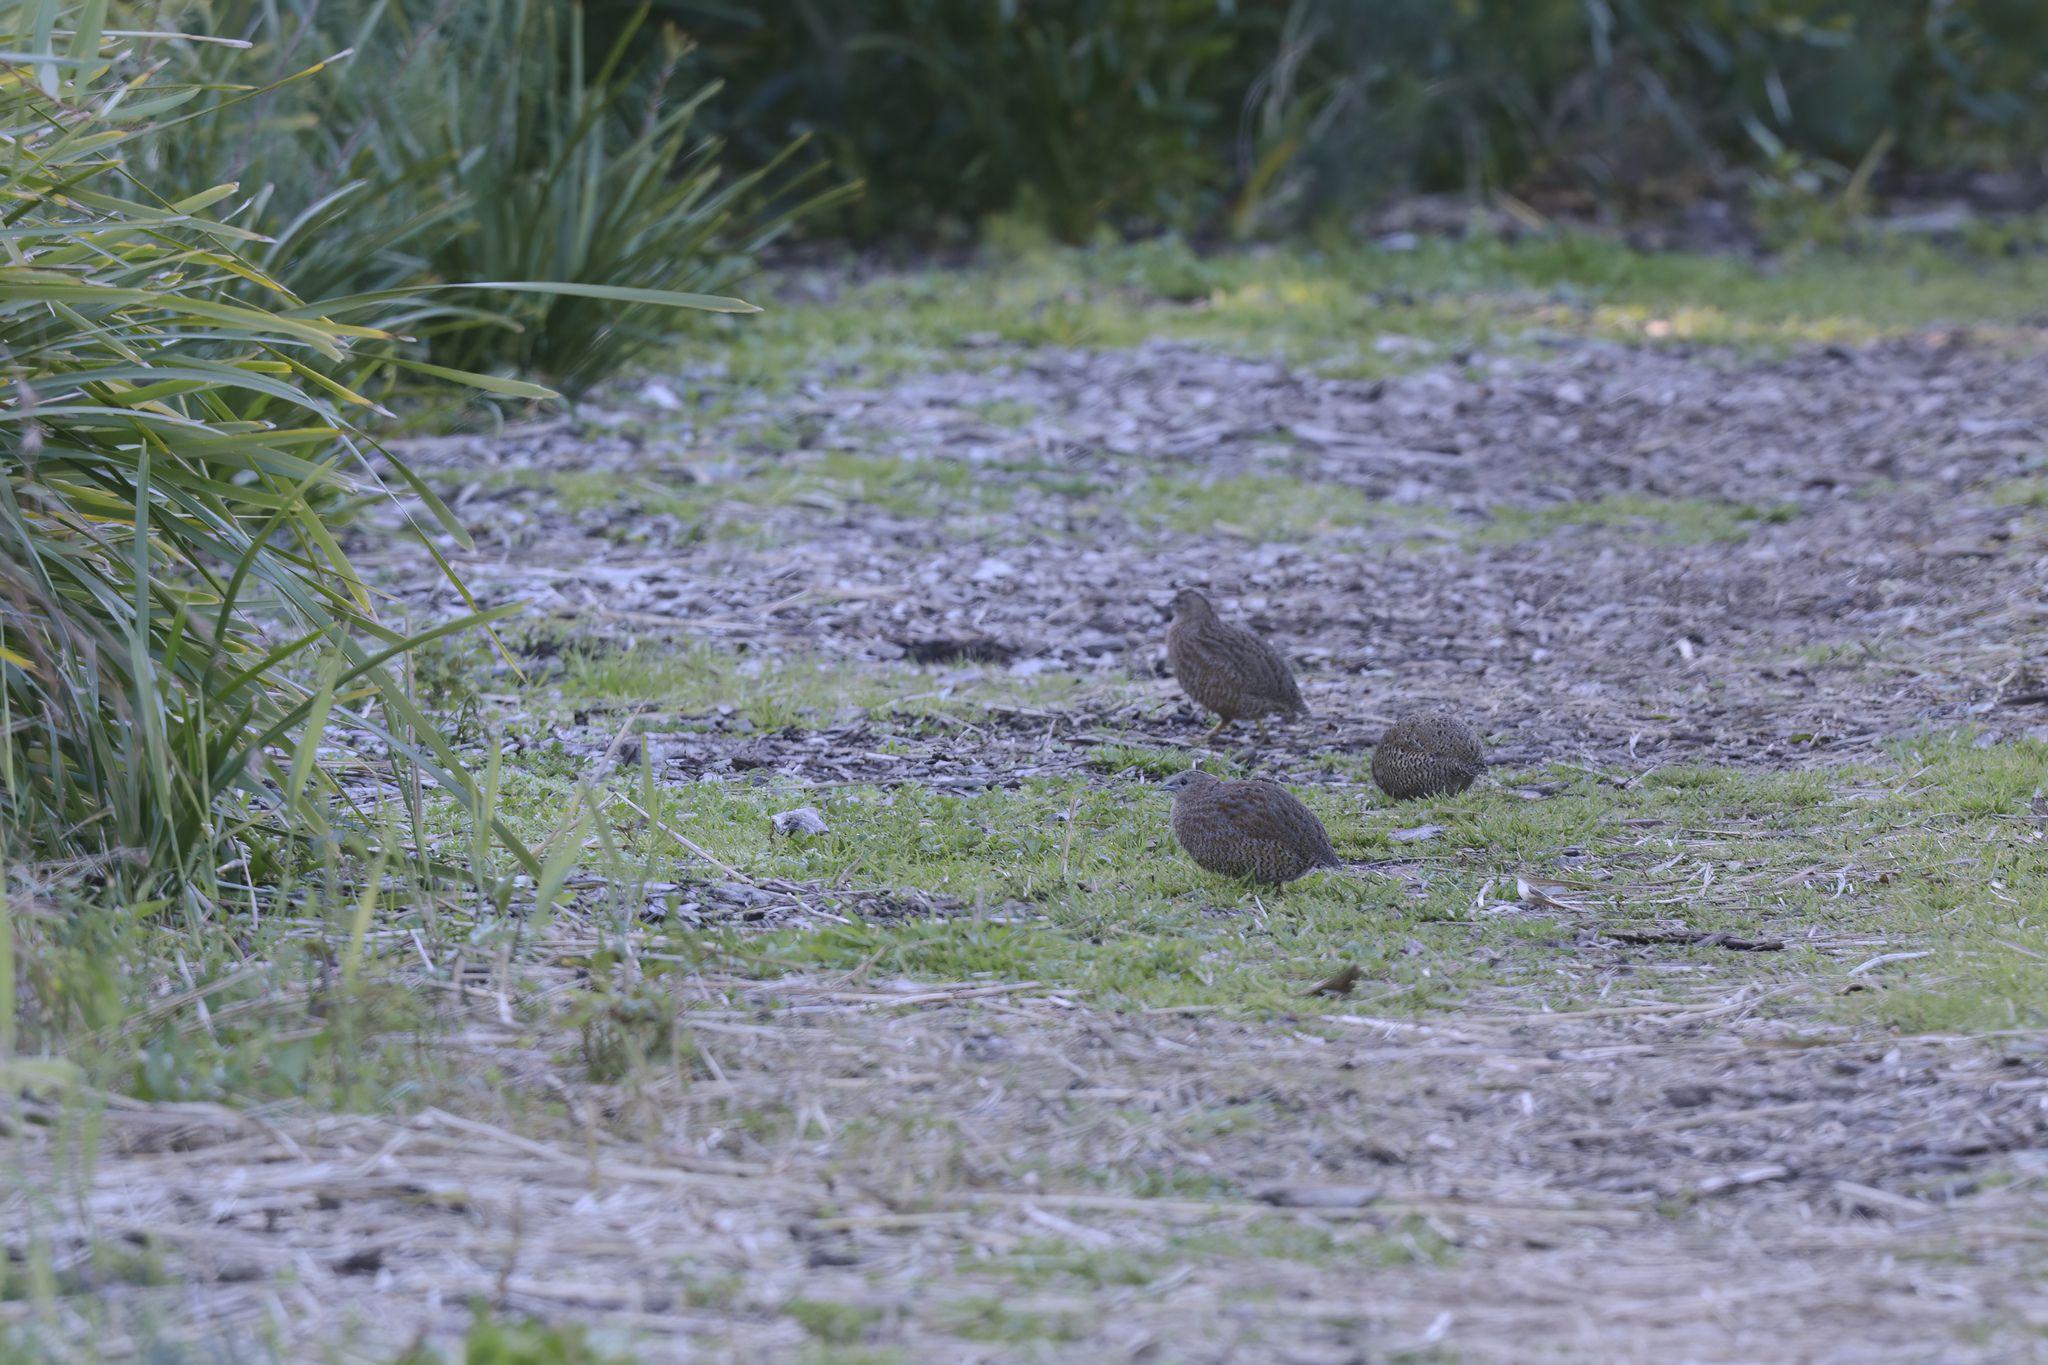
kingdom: Animalia
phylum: Chordata
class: Aves
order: Galliformes
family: Phasianidae
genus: Synoicus
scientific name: Synoicus ypsilophorus
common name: Brown quail
